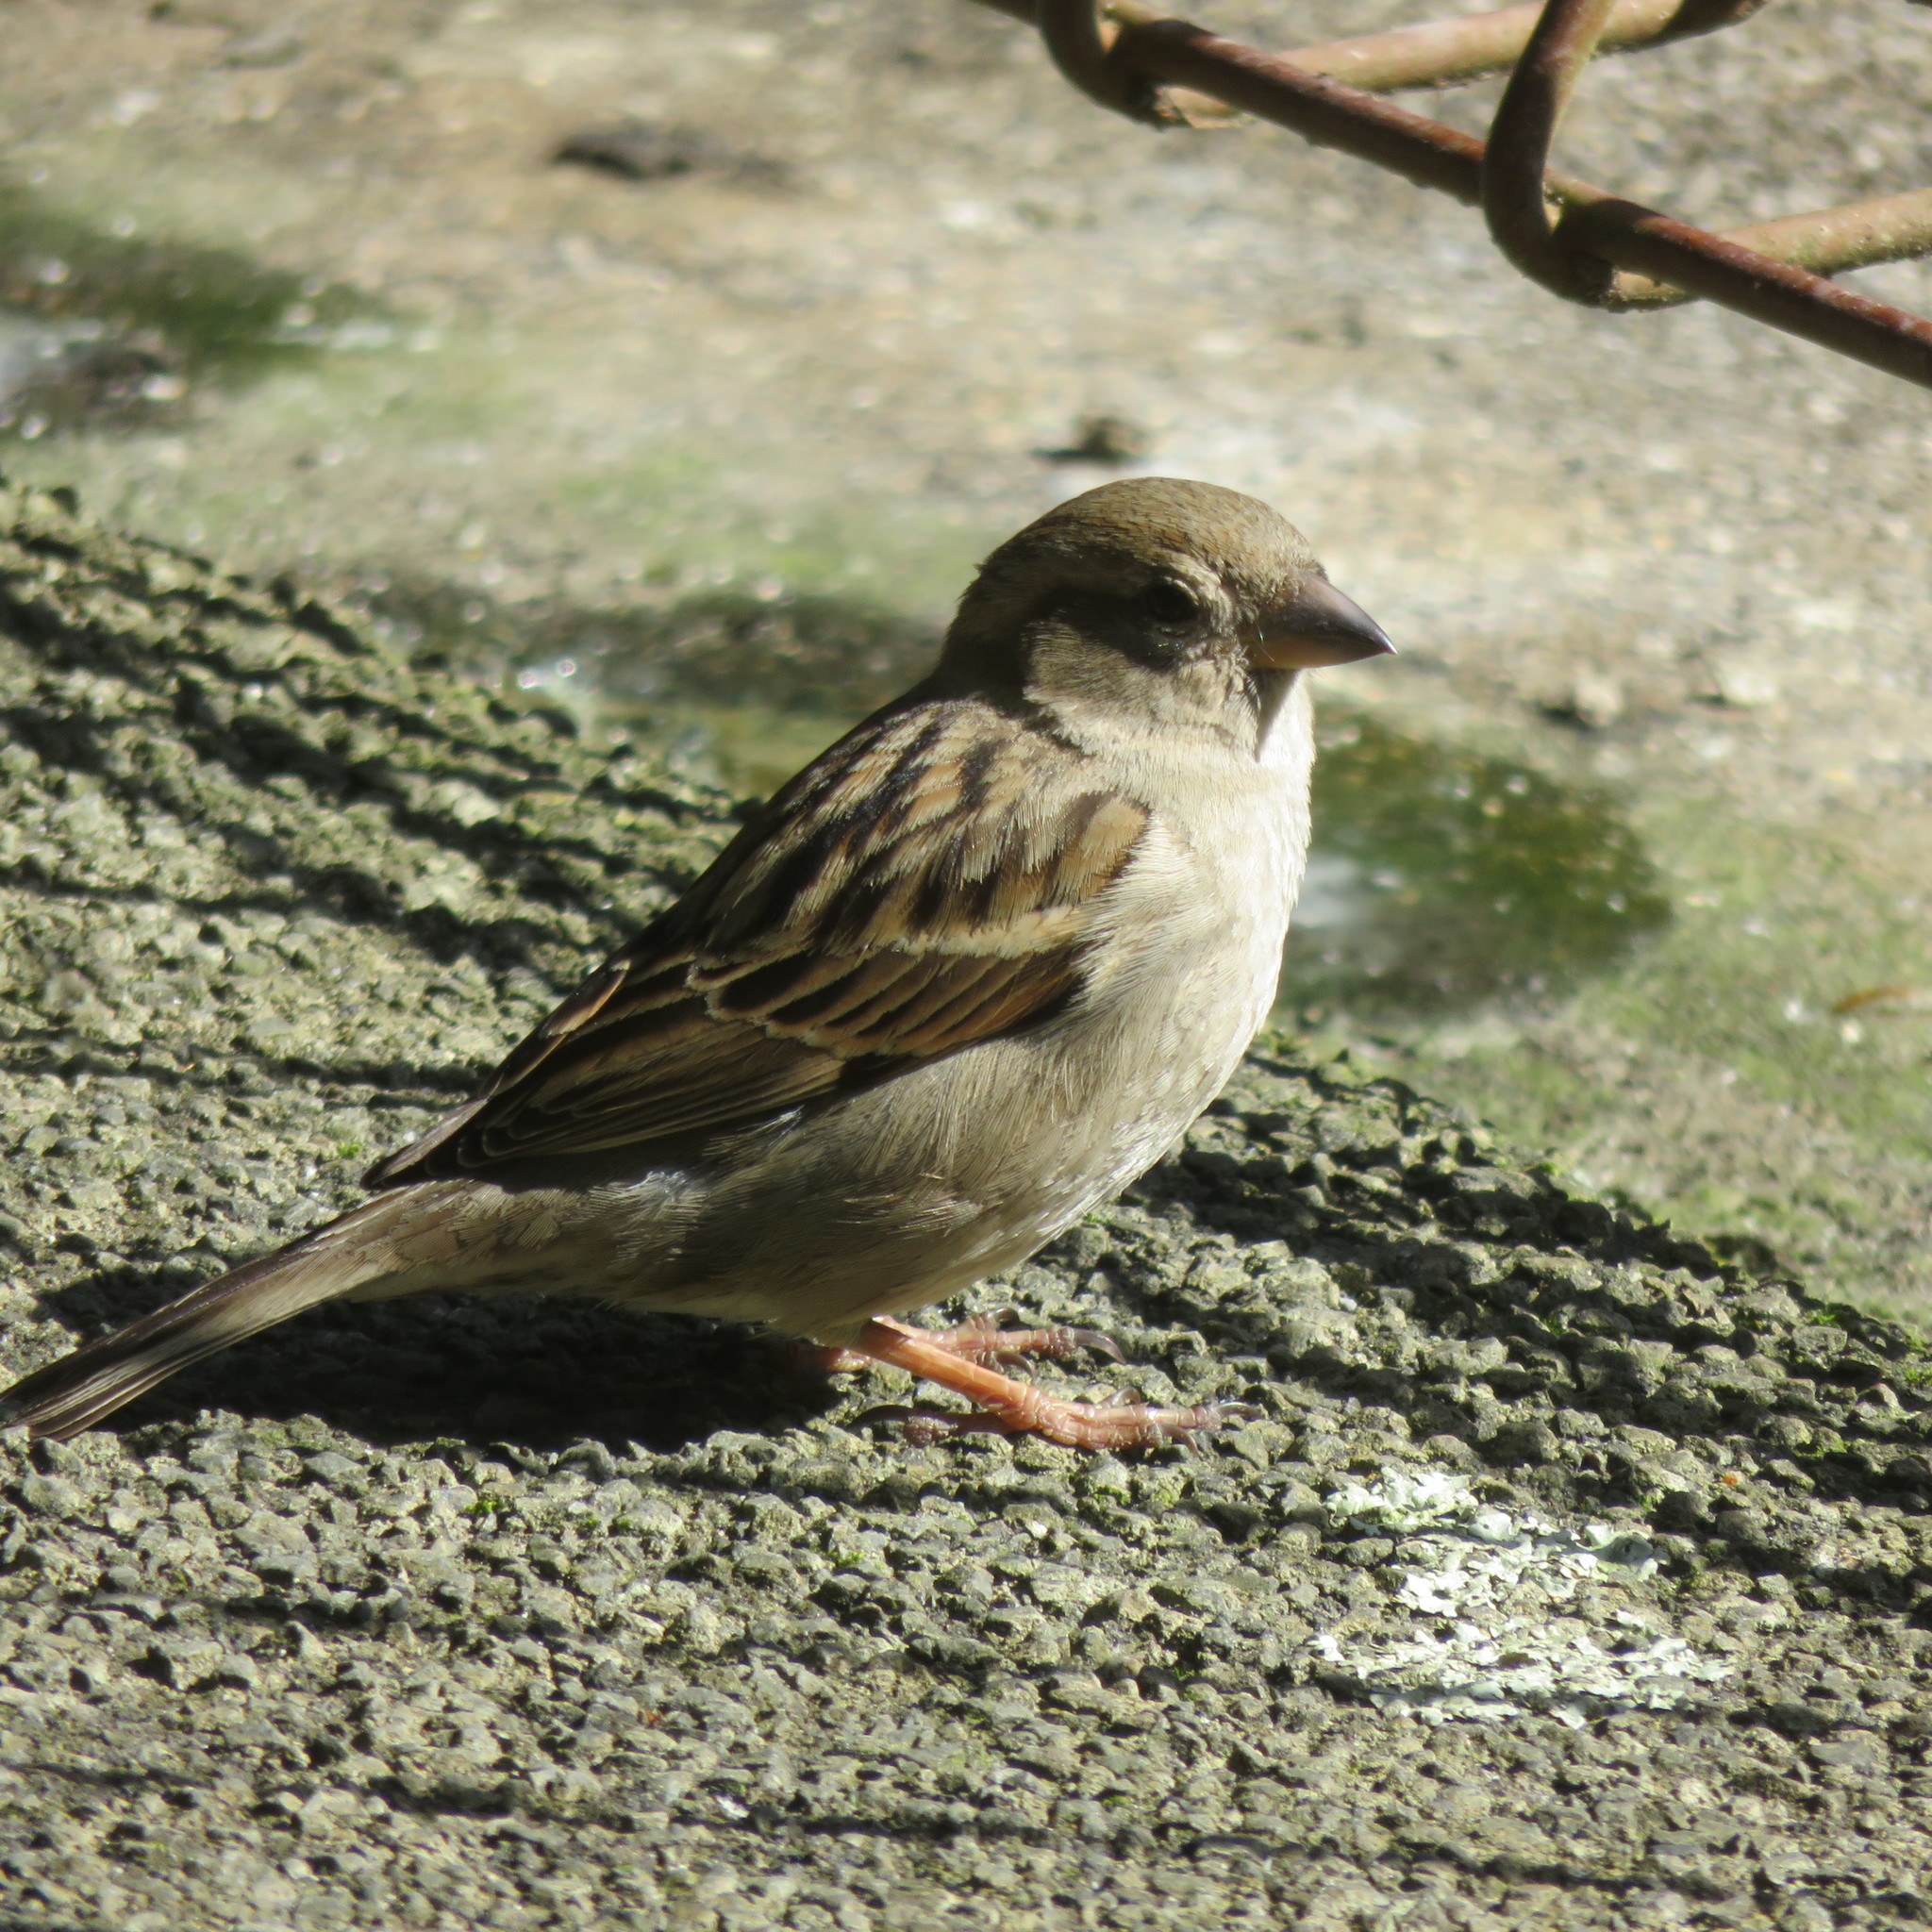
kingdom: Animalia
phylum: Chordata
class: Aves
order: Passeriformes
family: Passeridae
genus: Passer
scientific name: Passer domesticus
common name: House sparrow
